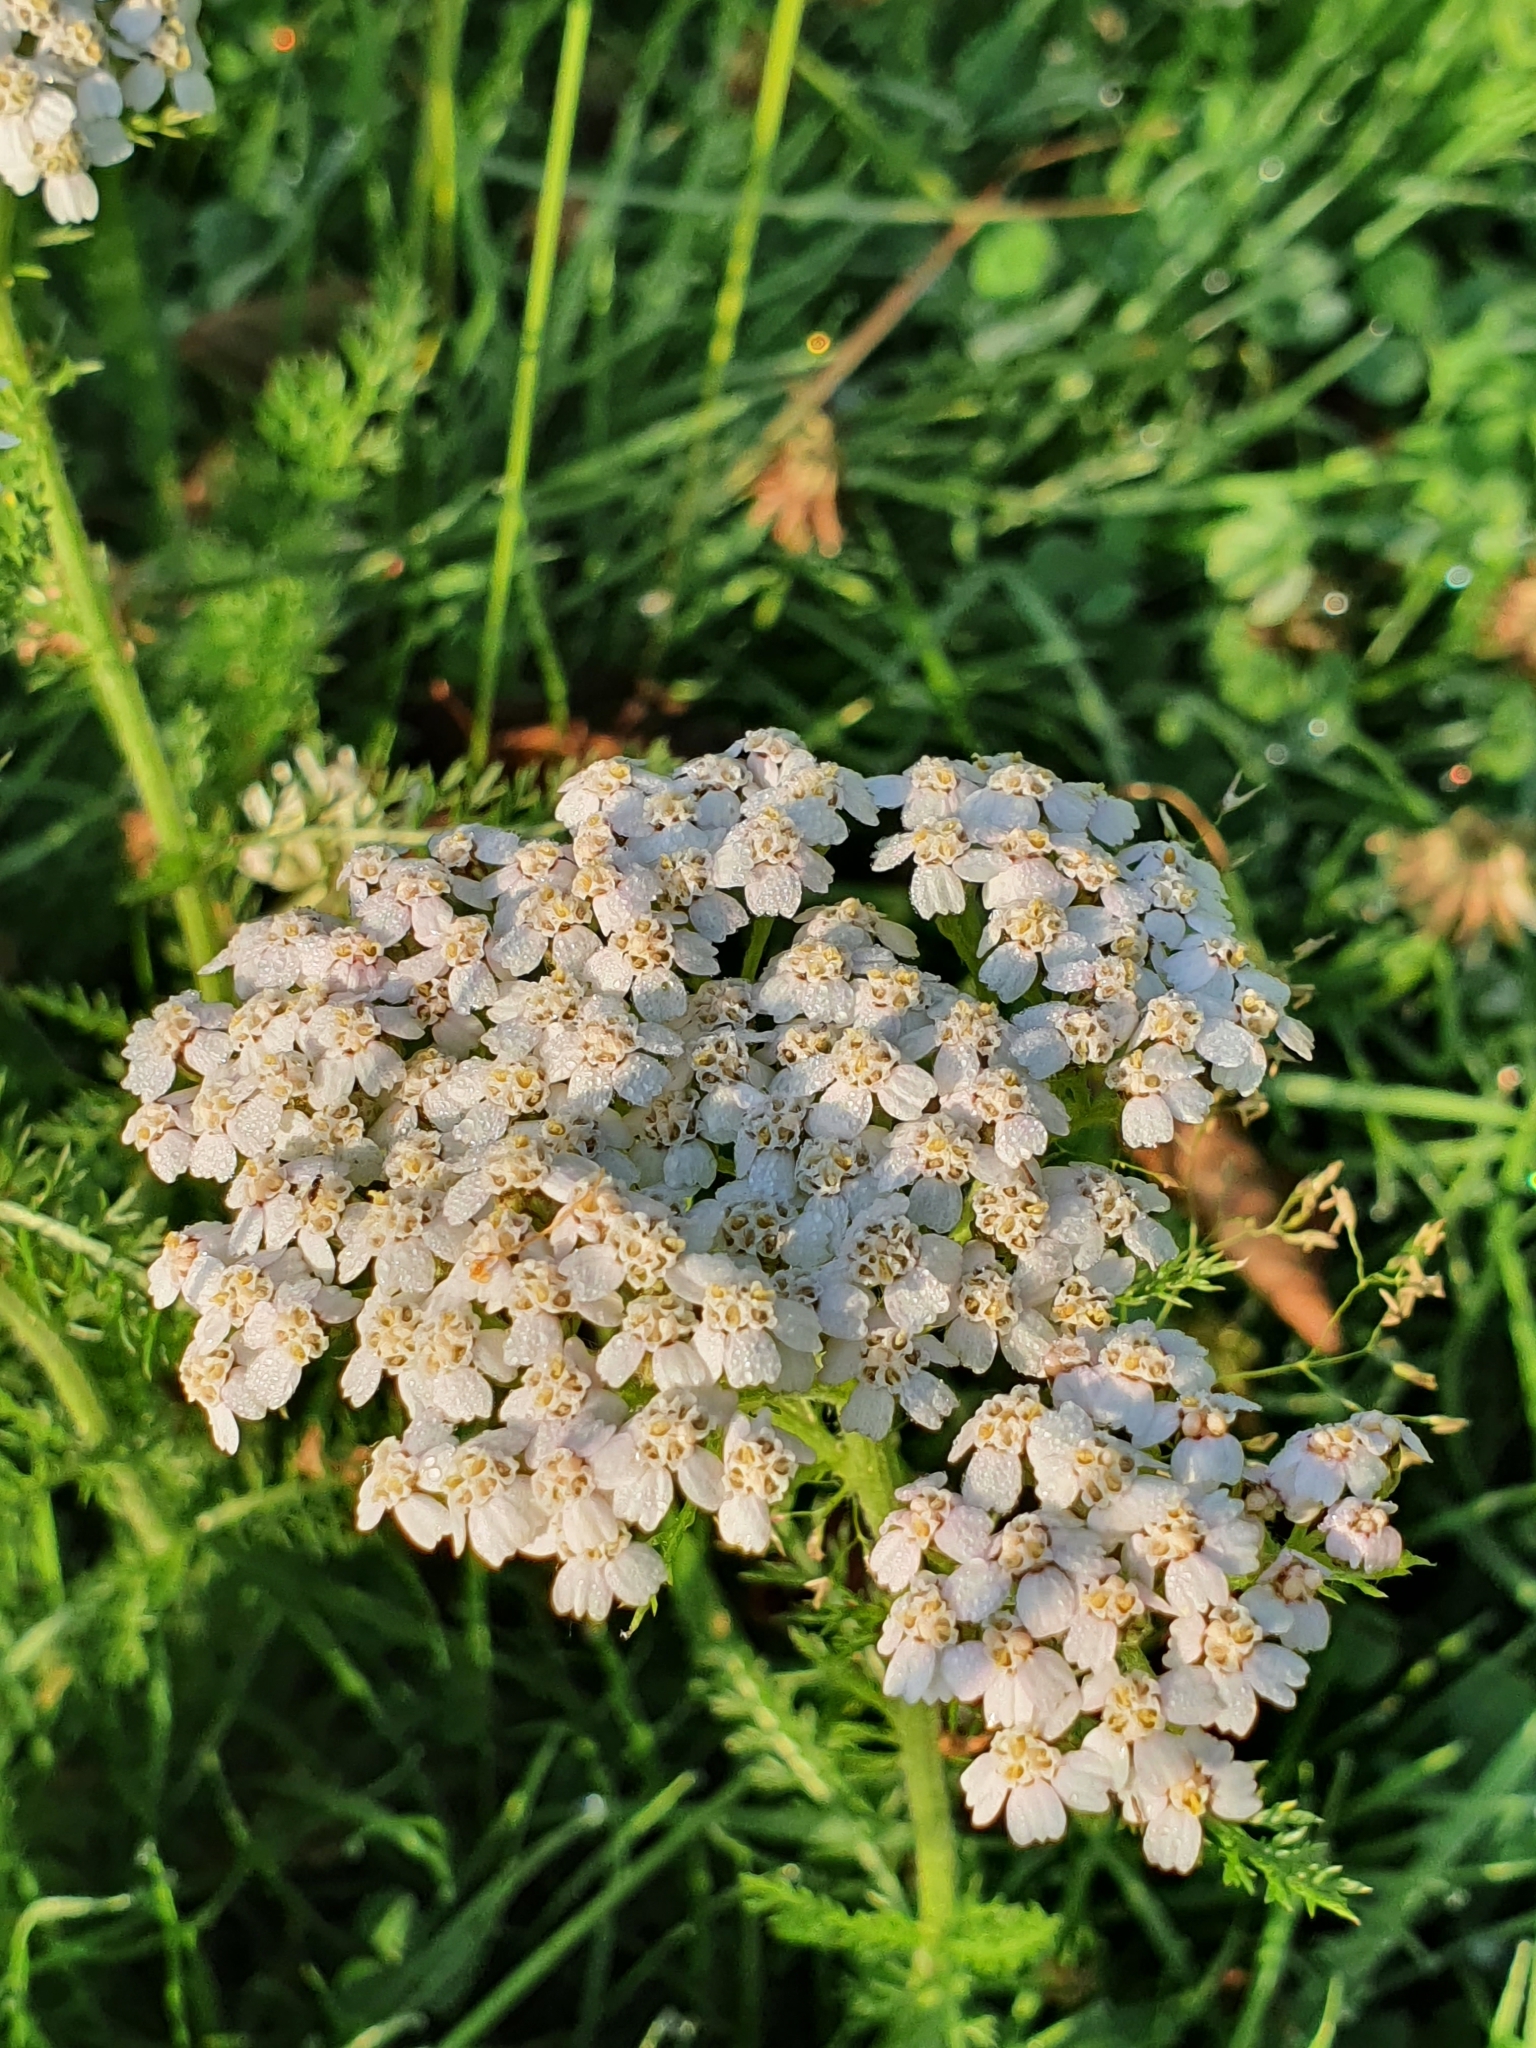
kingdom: Plantae
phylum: Tracheophyta
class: Magnoliopsida
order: Asterales
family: Asteraceae
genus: Achillea
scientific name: Achillea millefolium
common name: Yarrow
